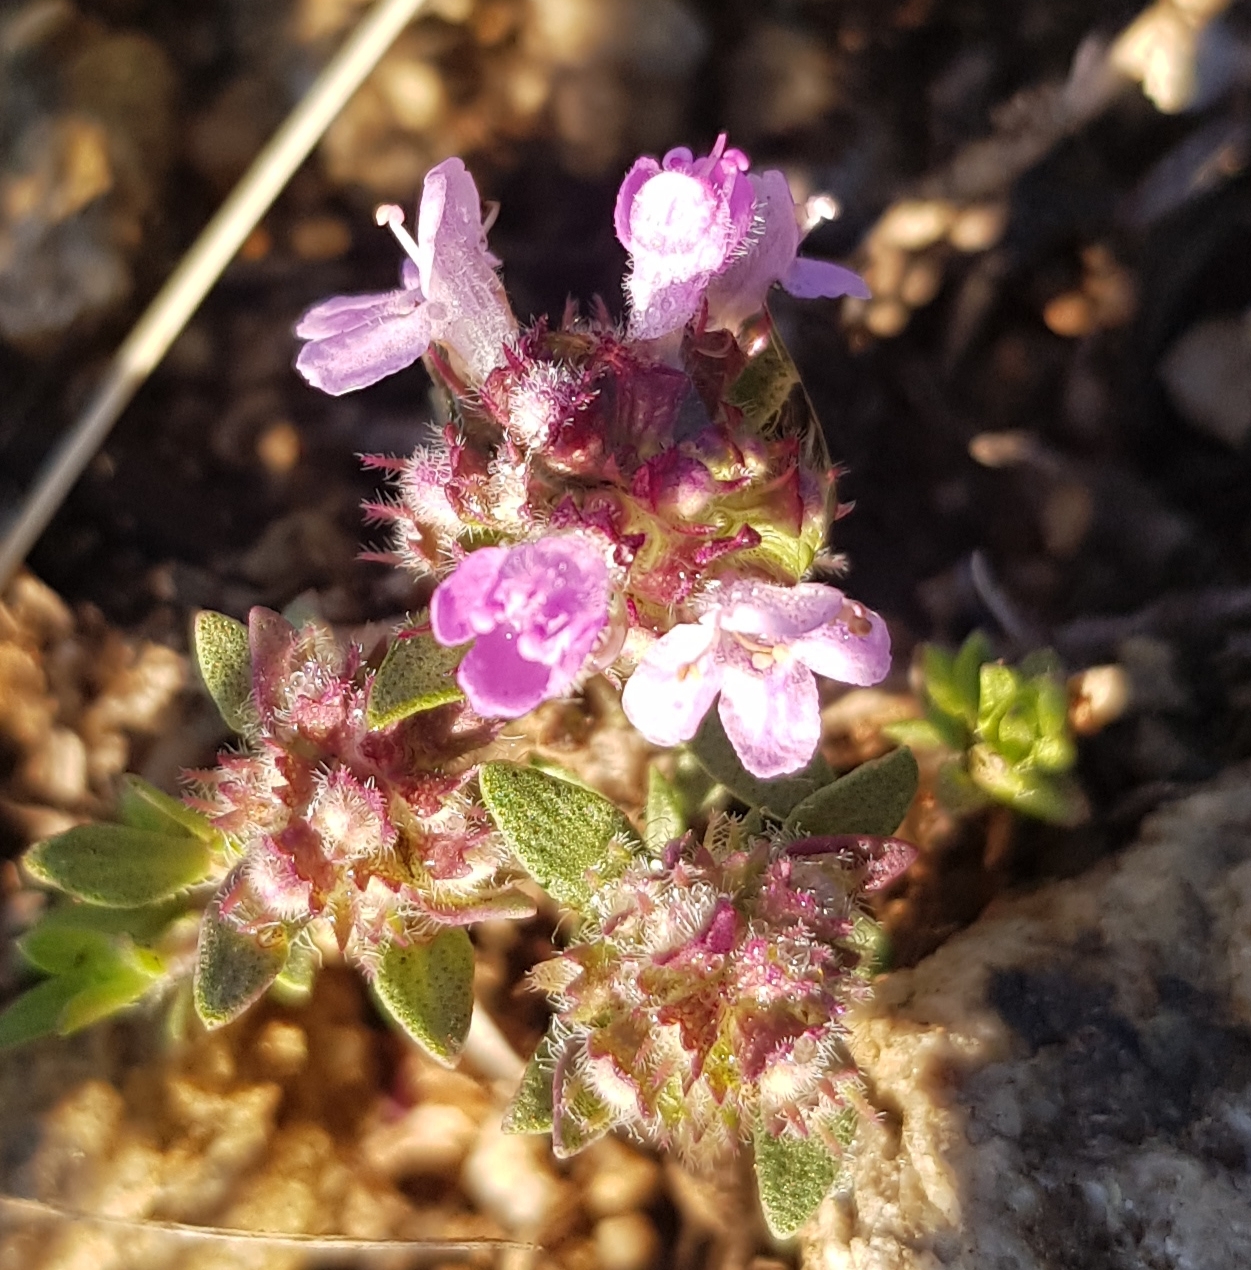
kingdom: Plantae
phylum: Tracheophyta
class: Magnoliopsida
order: Lamiales
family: Lamiaceae
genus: Thymus
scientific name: Thymus sibiricus
